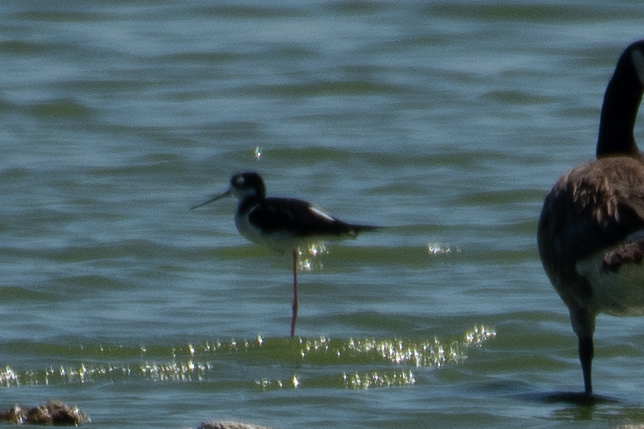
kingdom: Animalia
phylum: Chordata
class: Aves
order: Charadriiformes
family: Recurvirostridae
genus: Himantopus
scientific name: Himantopus mexicanus
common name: Black-necked stilt
